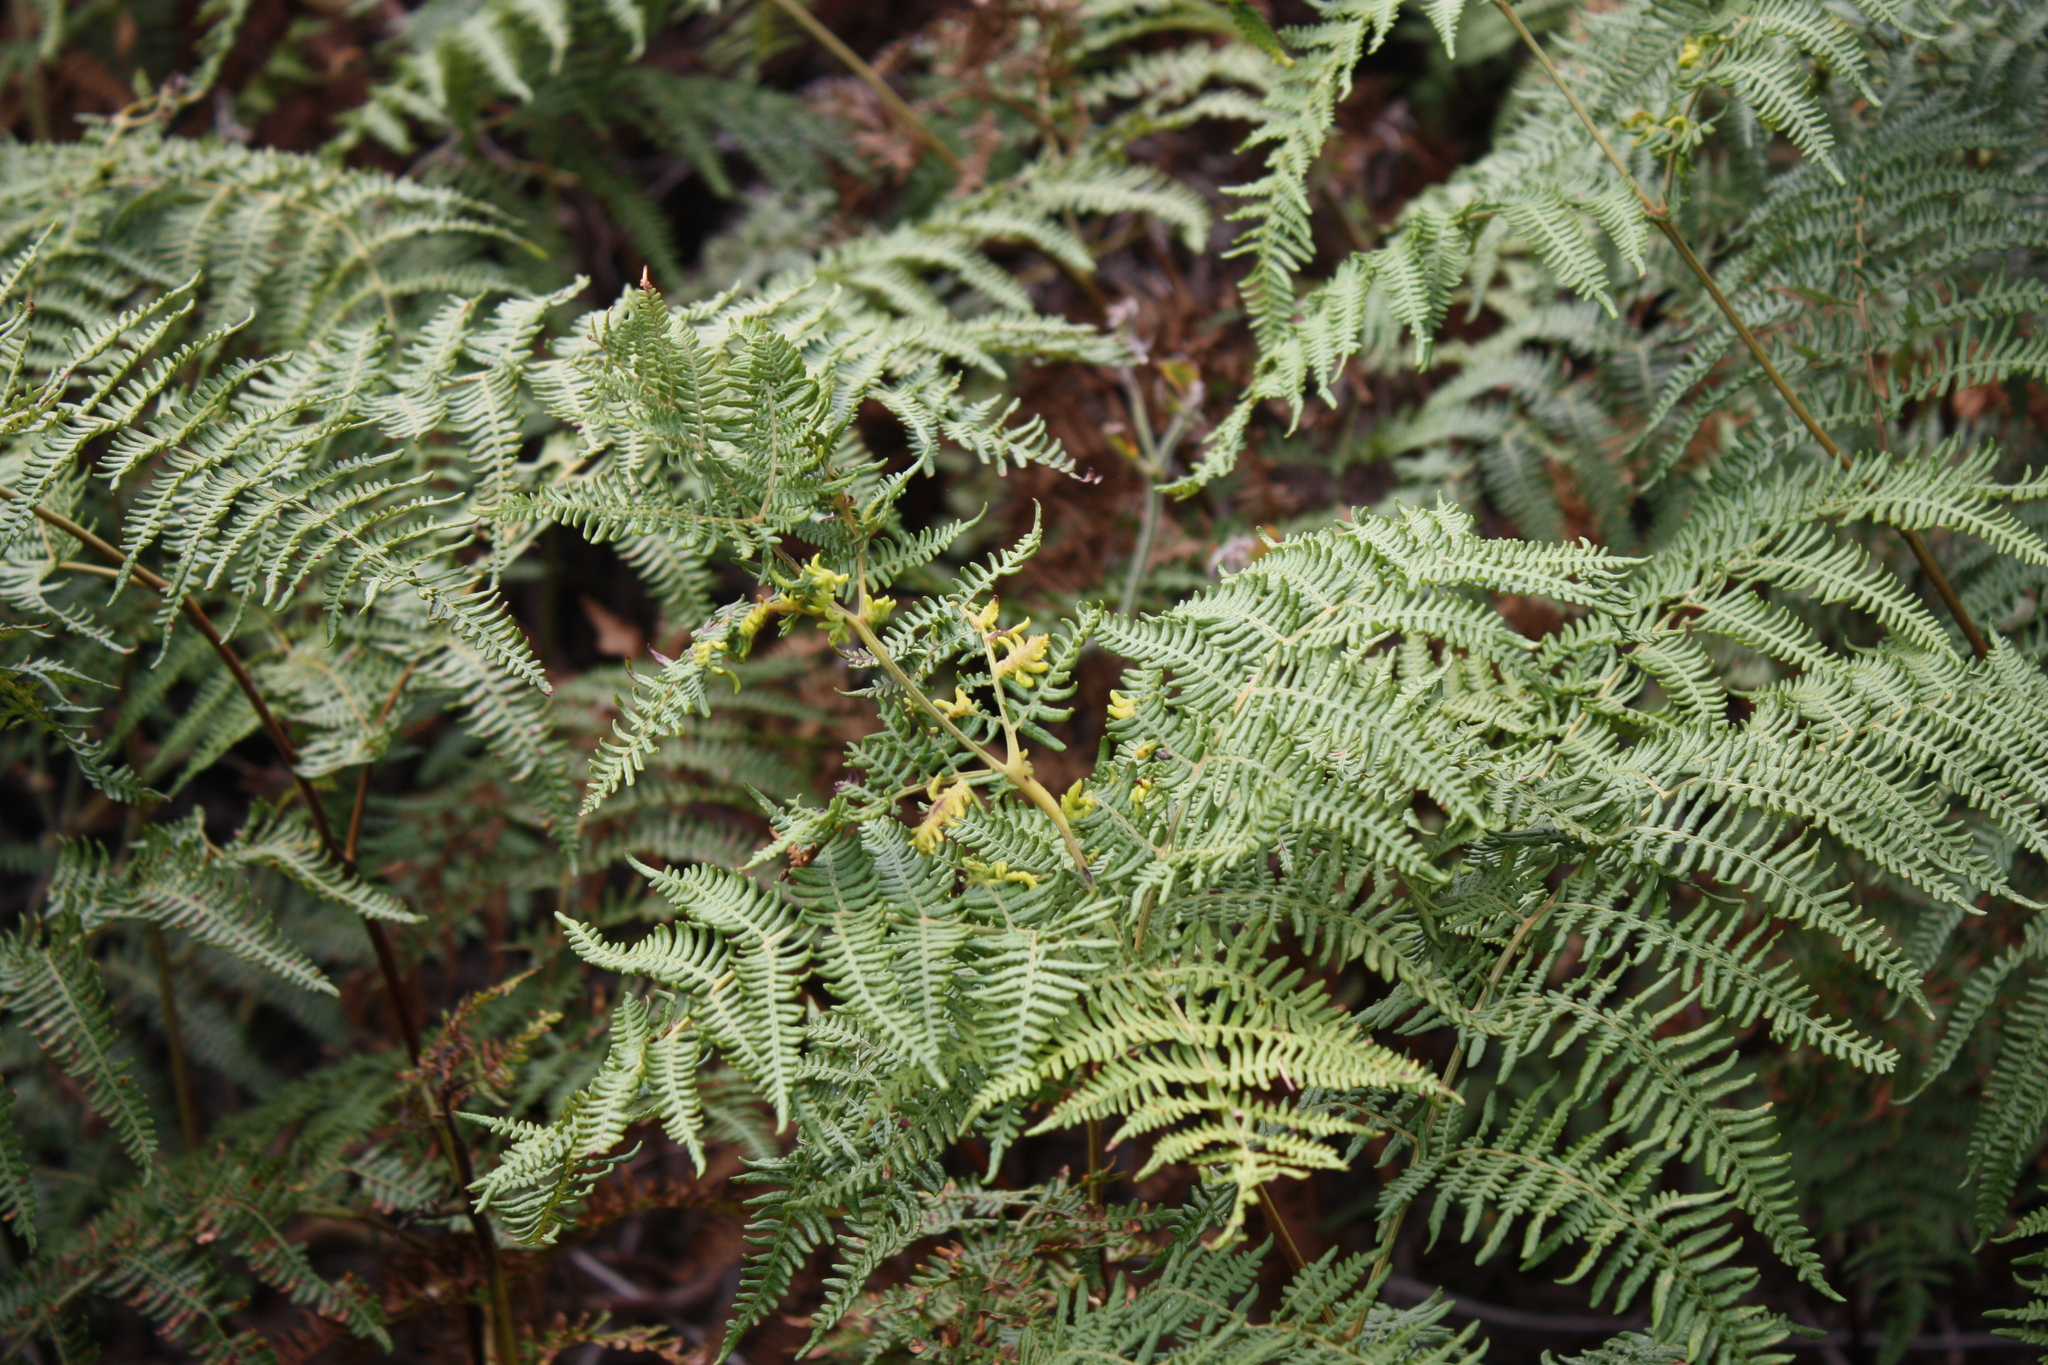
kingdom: Plantae
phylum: Tracheophyta
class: Polypodiopsida
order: Polypodiales
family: Dennstaedtiaceae
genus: Pteridium
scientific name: Pteridium aquilinum
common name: Bracken
